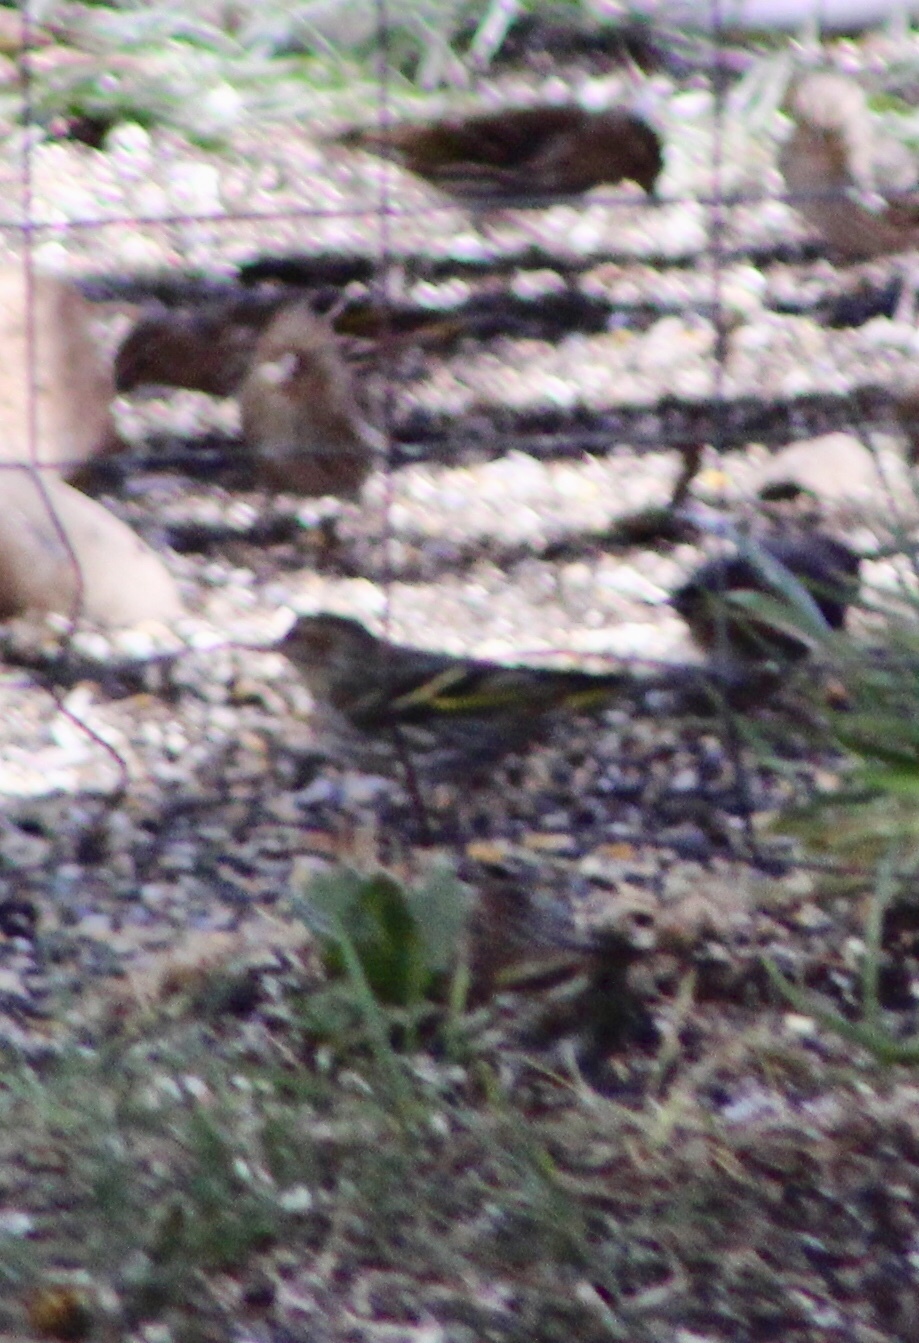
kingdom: Animalia
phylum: Chordata
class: Aves
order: Passeriformes
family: Fringillidae
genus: Spinus
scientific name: Spinus pinus
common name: Pine siskin
